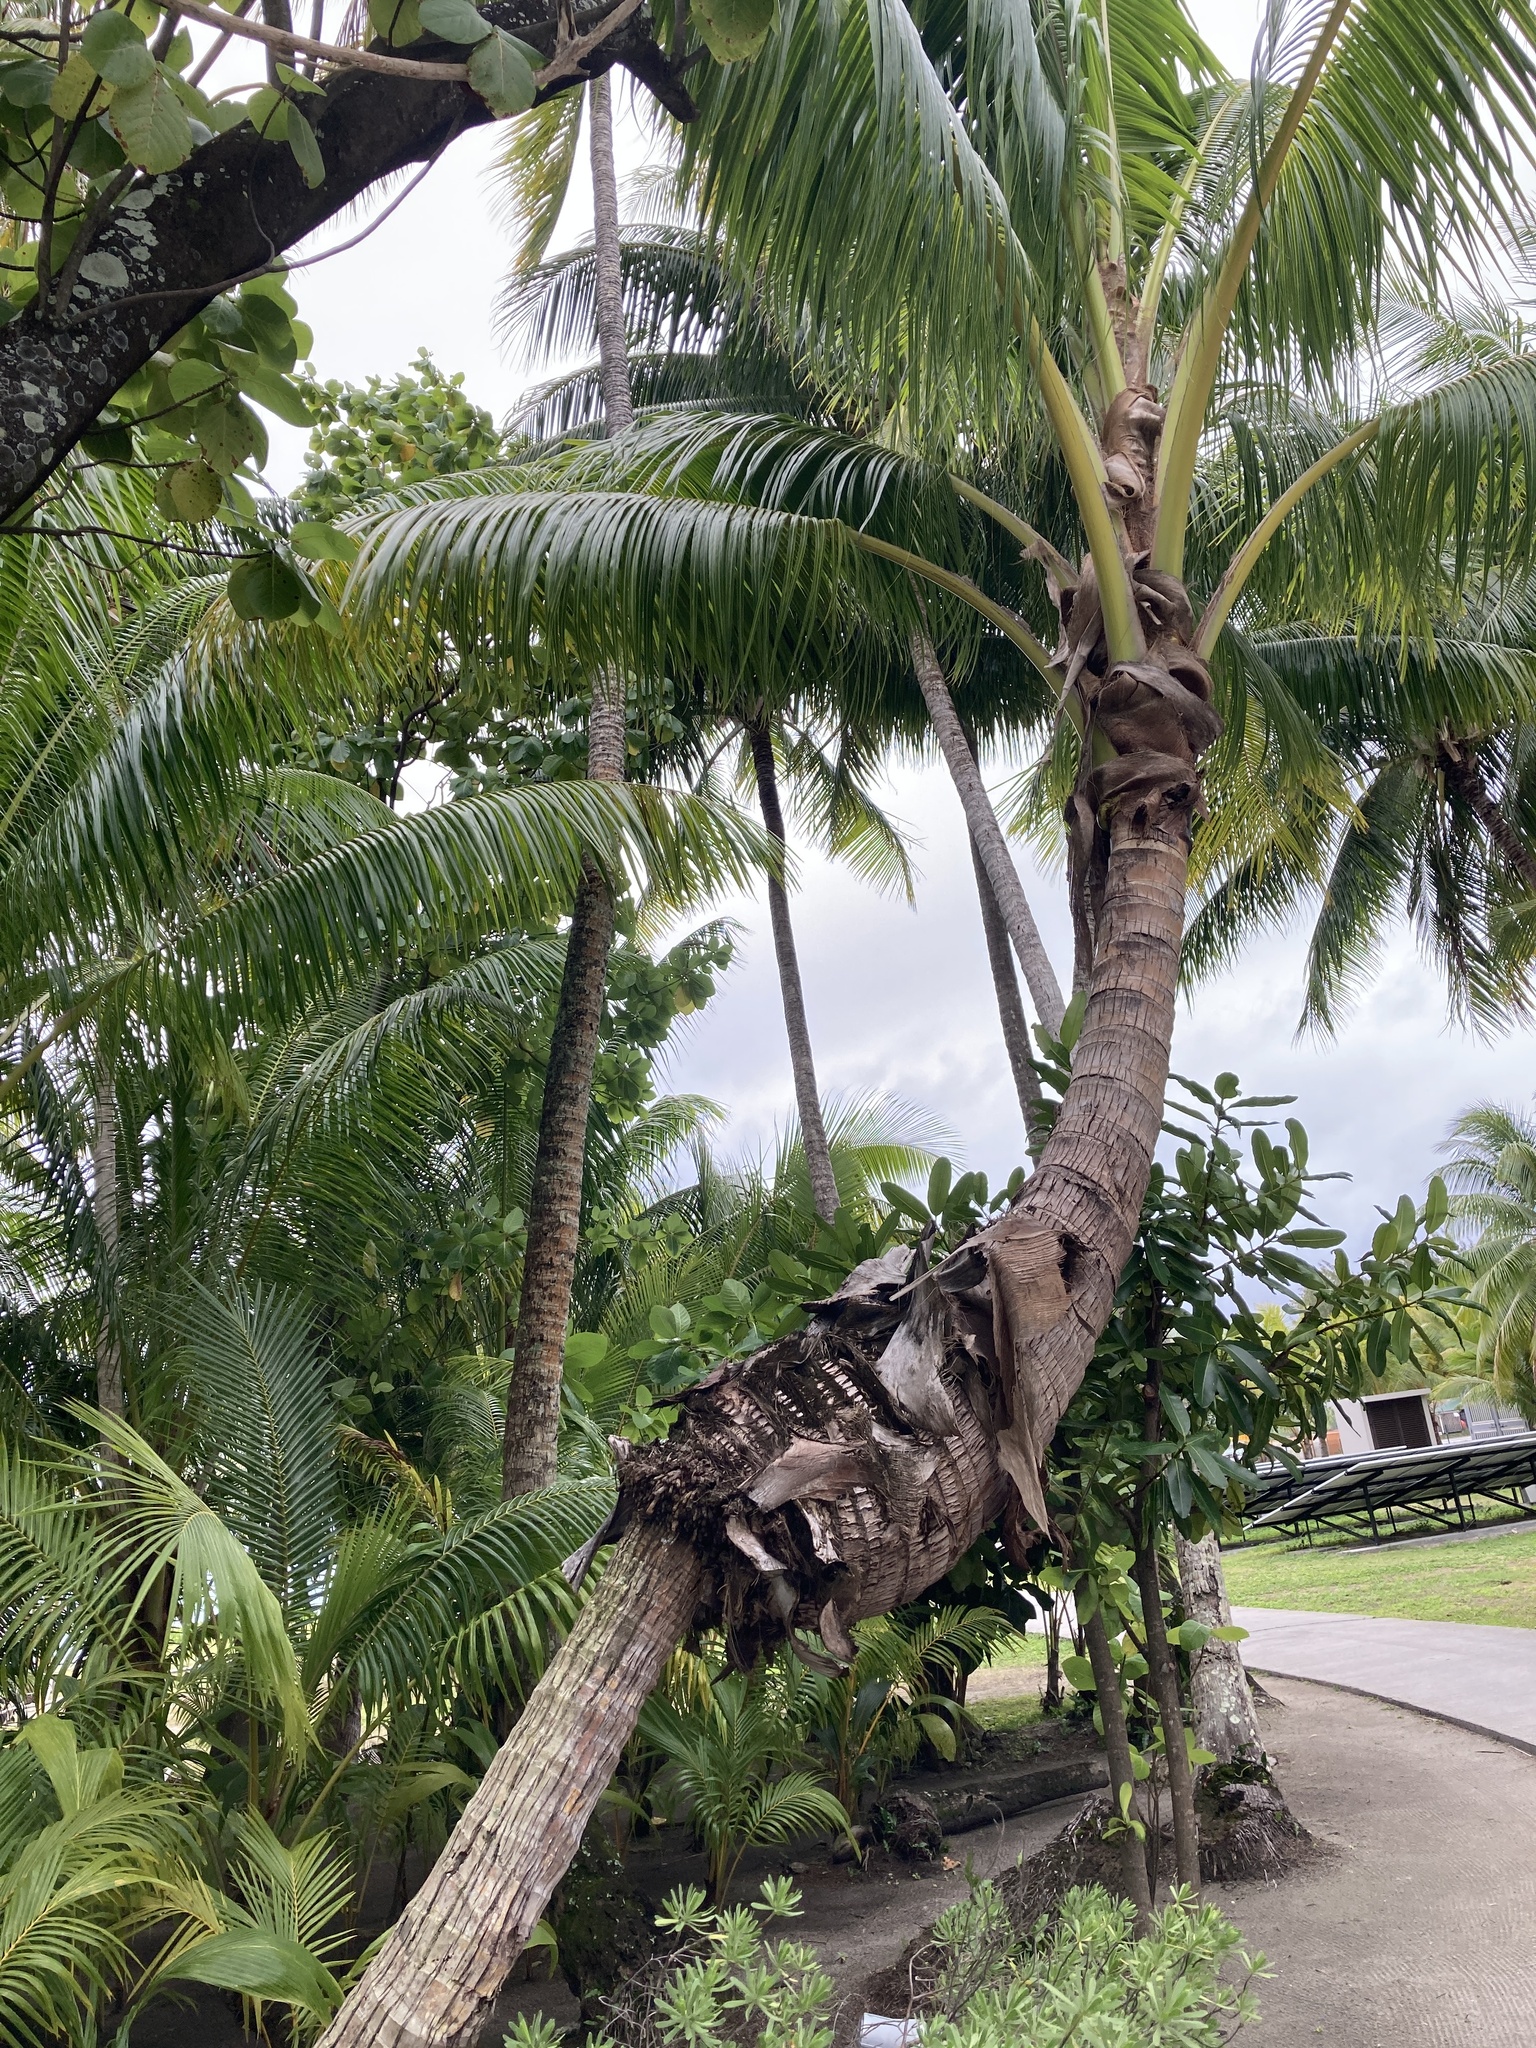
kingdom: Plantae
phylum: Tracheophyta
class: Liliopsida
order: Arecales
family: Arecaceae
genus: Cocos
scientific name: Cocos nucifera
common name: Coconut palm
